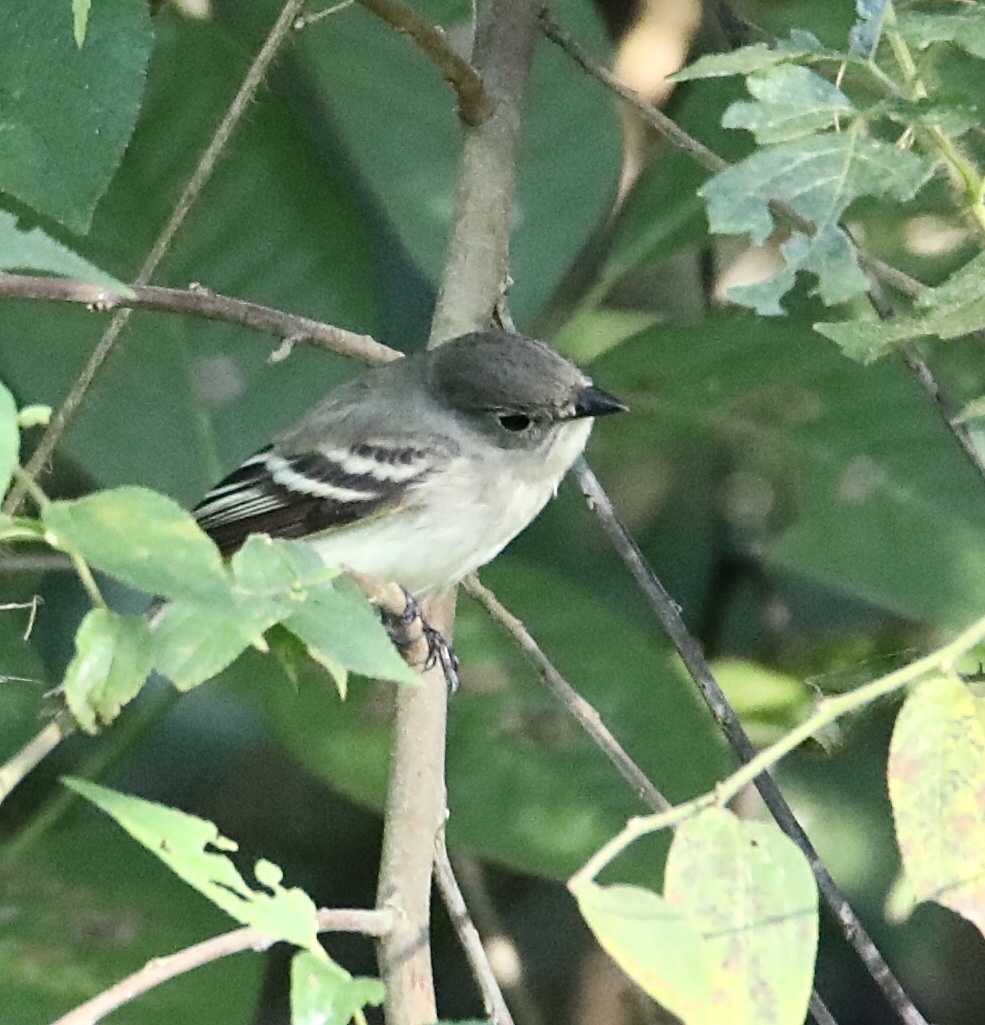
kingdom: Animalia
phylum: Chordata
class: Aves
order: Passeriformes
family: Tyrannidae
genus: Empidonax
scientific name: Empidonax virescens
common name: Acadian flycatcher
